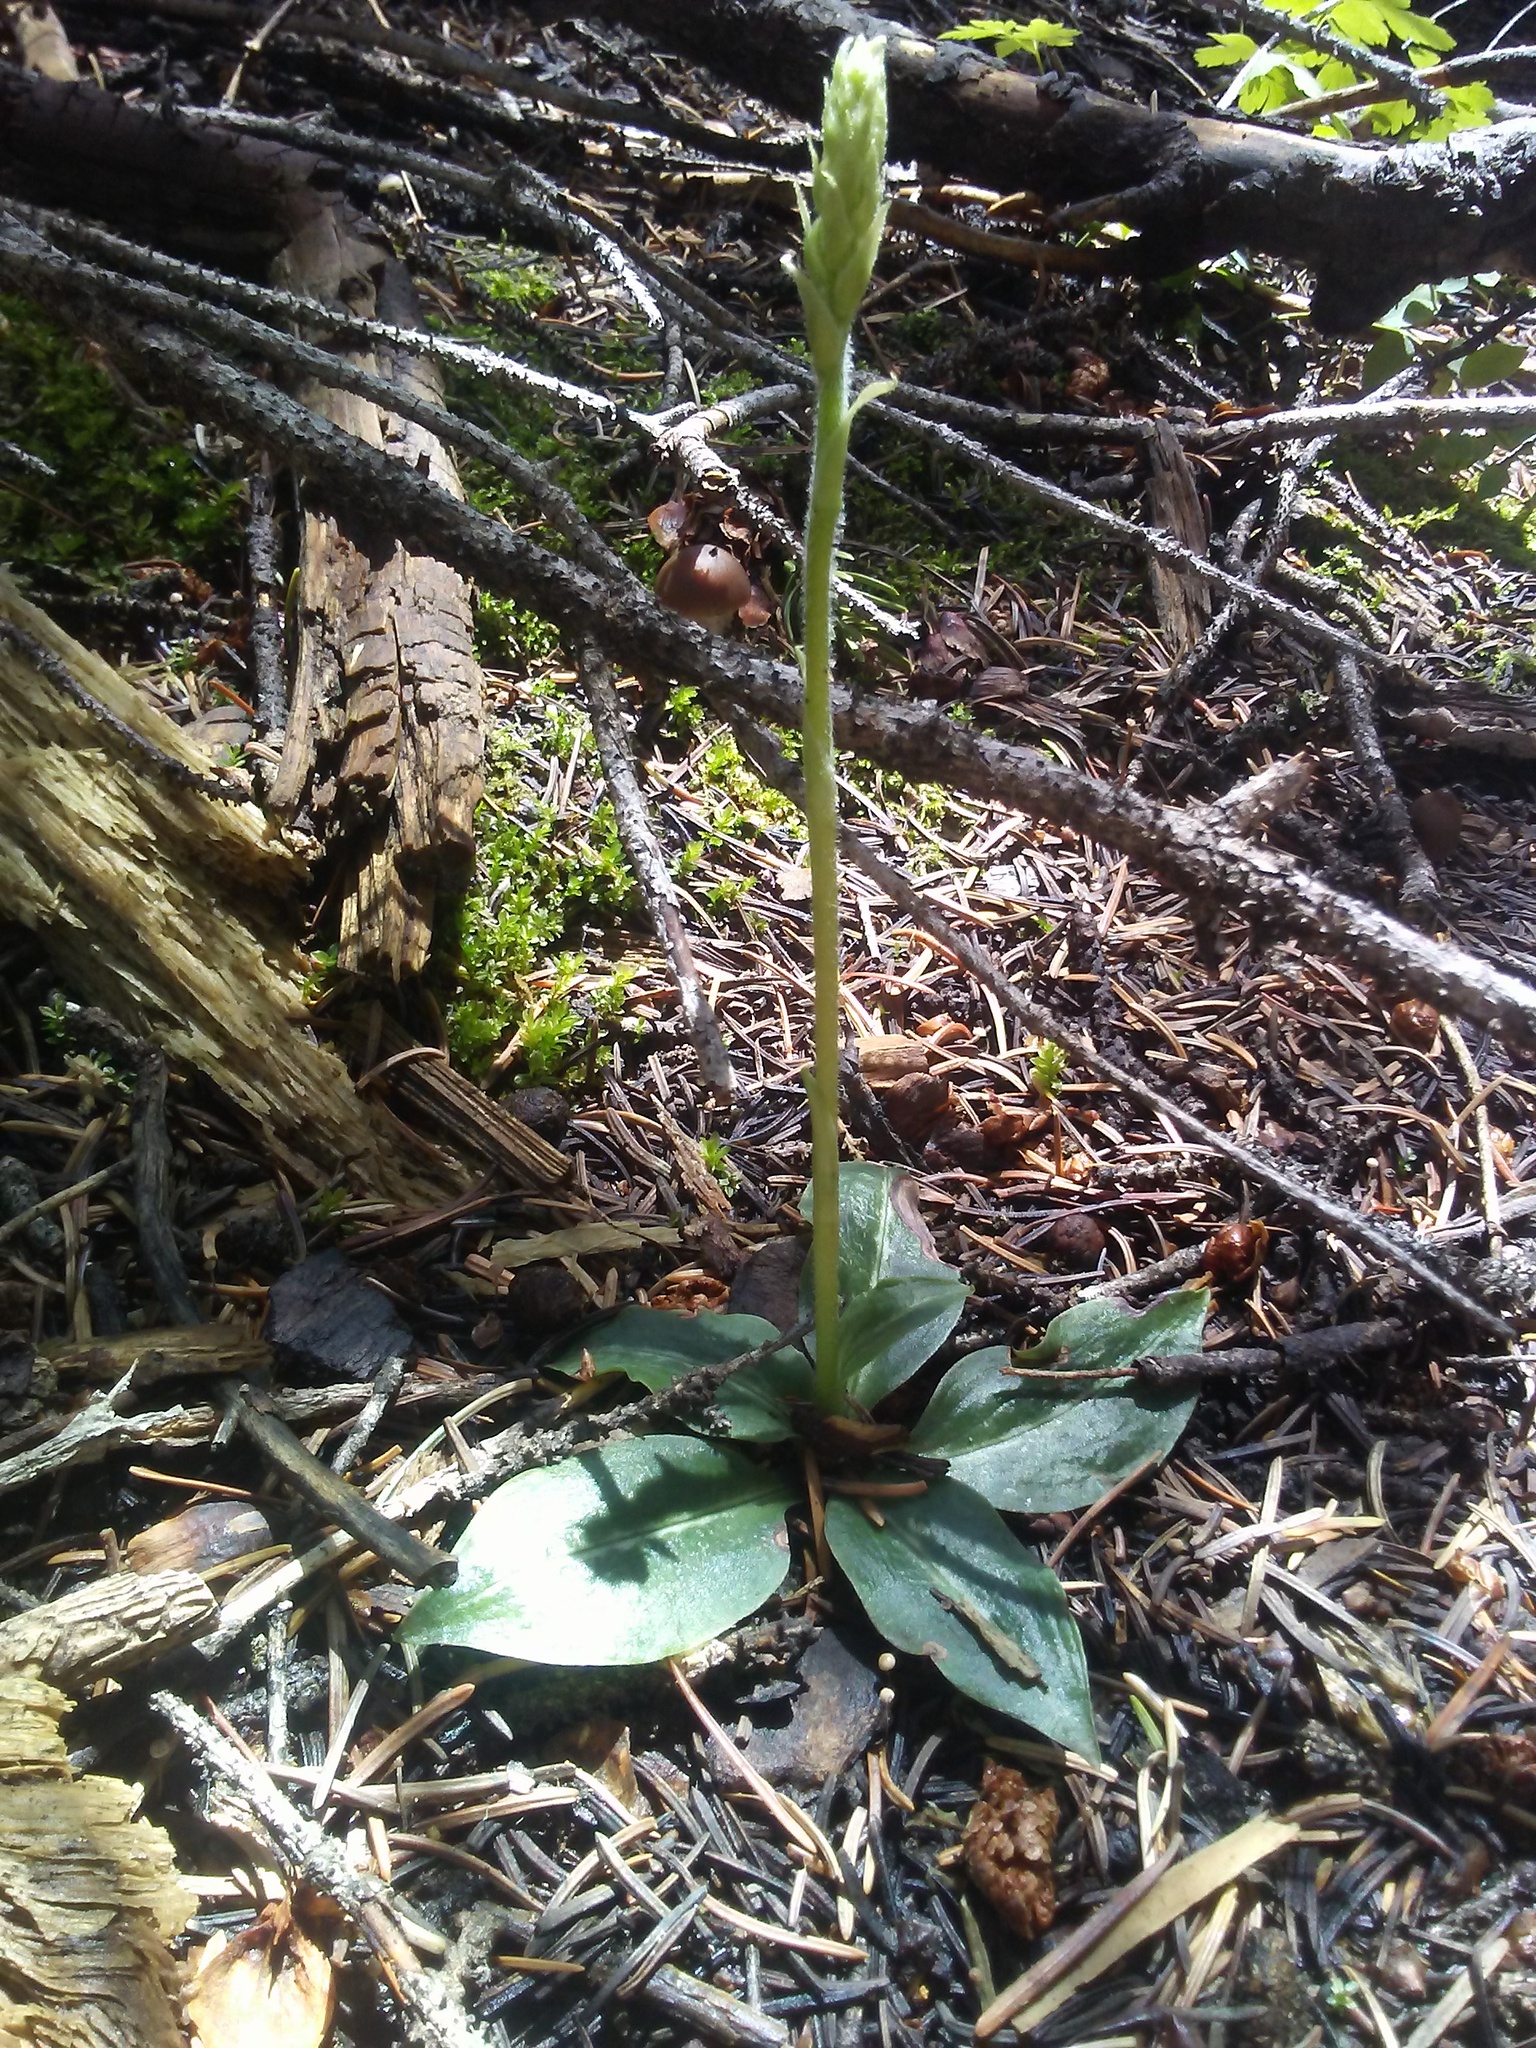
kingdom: Plantae
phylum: Tracheophyta
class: Liliopsida
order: Asparagales
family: Orchidaceae
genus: Goodyera
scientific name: Goodyera oblongifolia
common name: Giant rattlesnake-plantain
